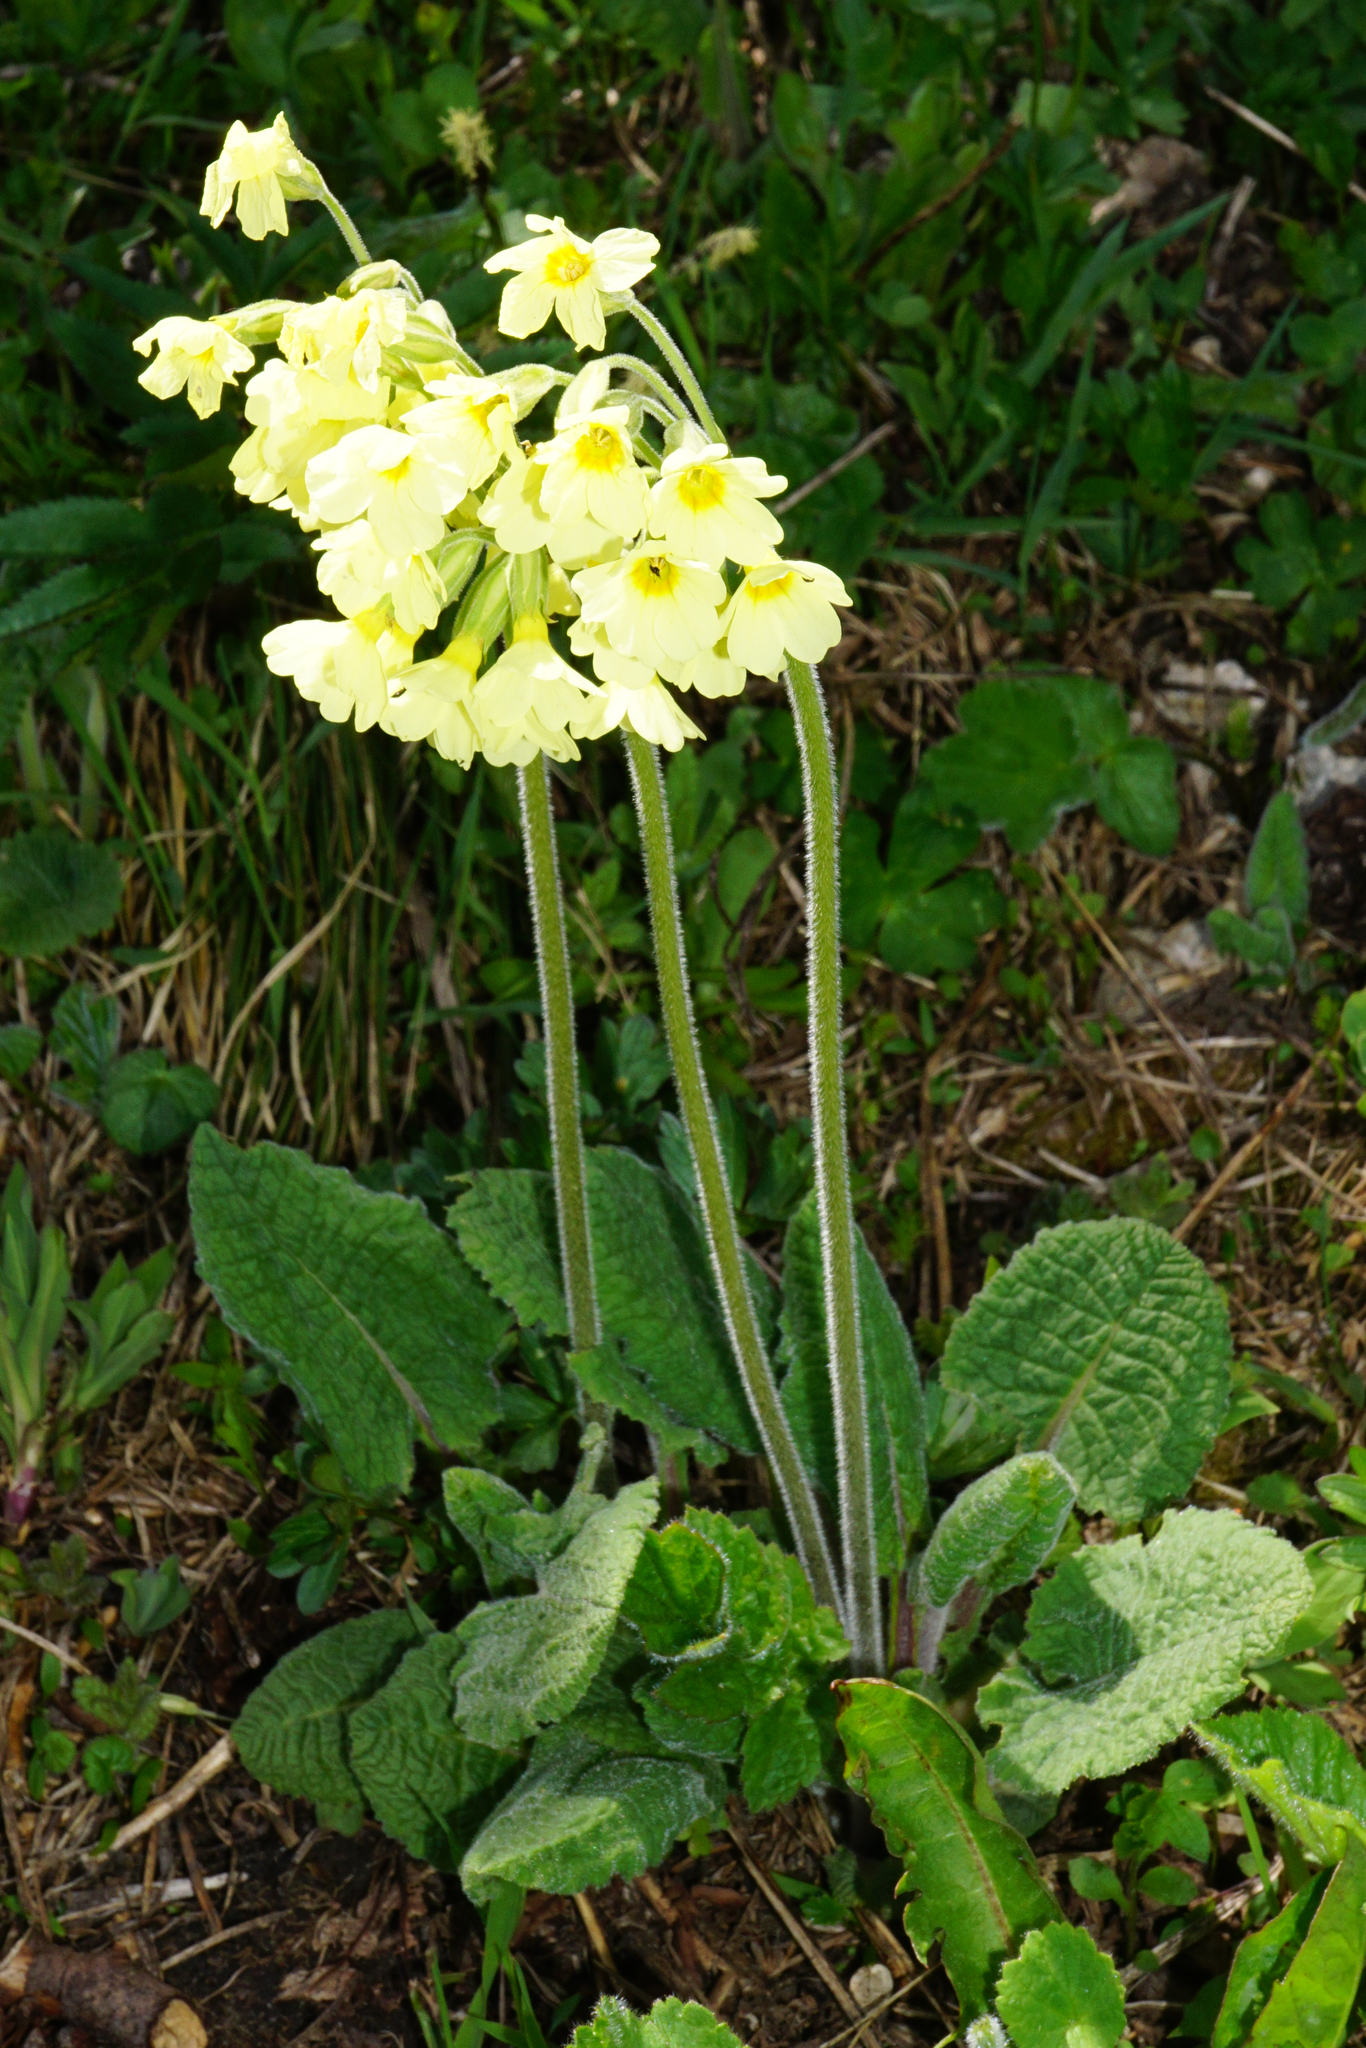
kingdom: Plantae
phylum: Tracheophyta
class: Magnoliopsida
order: Ericales
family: Primulaceae
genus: Primula
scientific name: Primula elatior
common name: Oxlip
